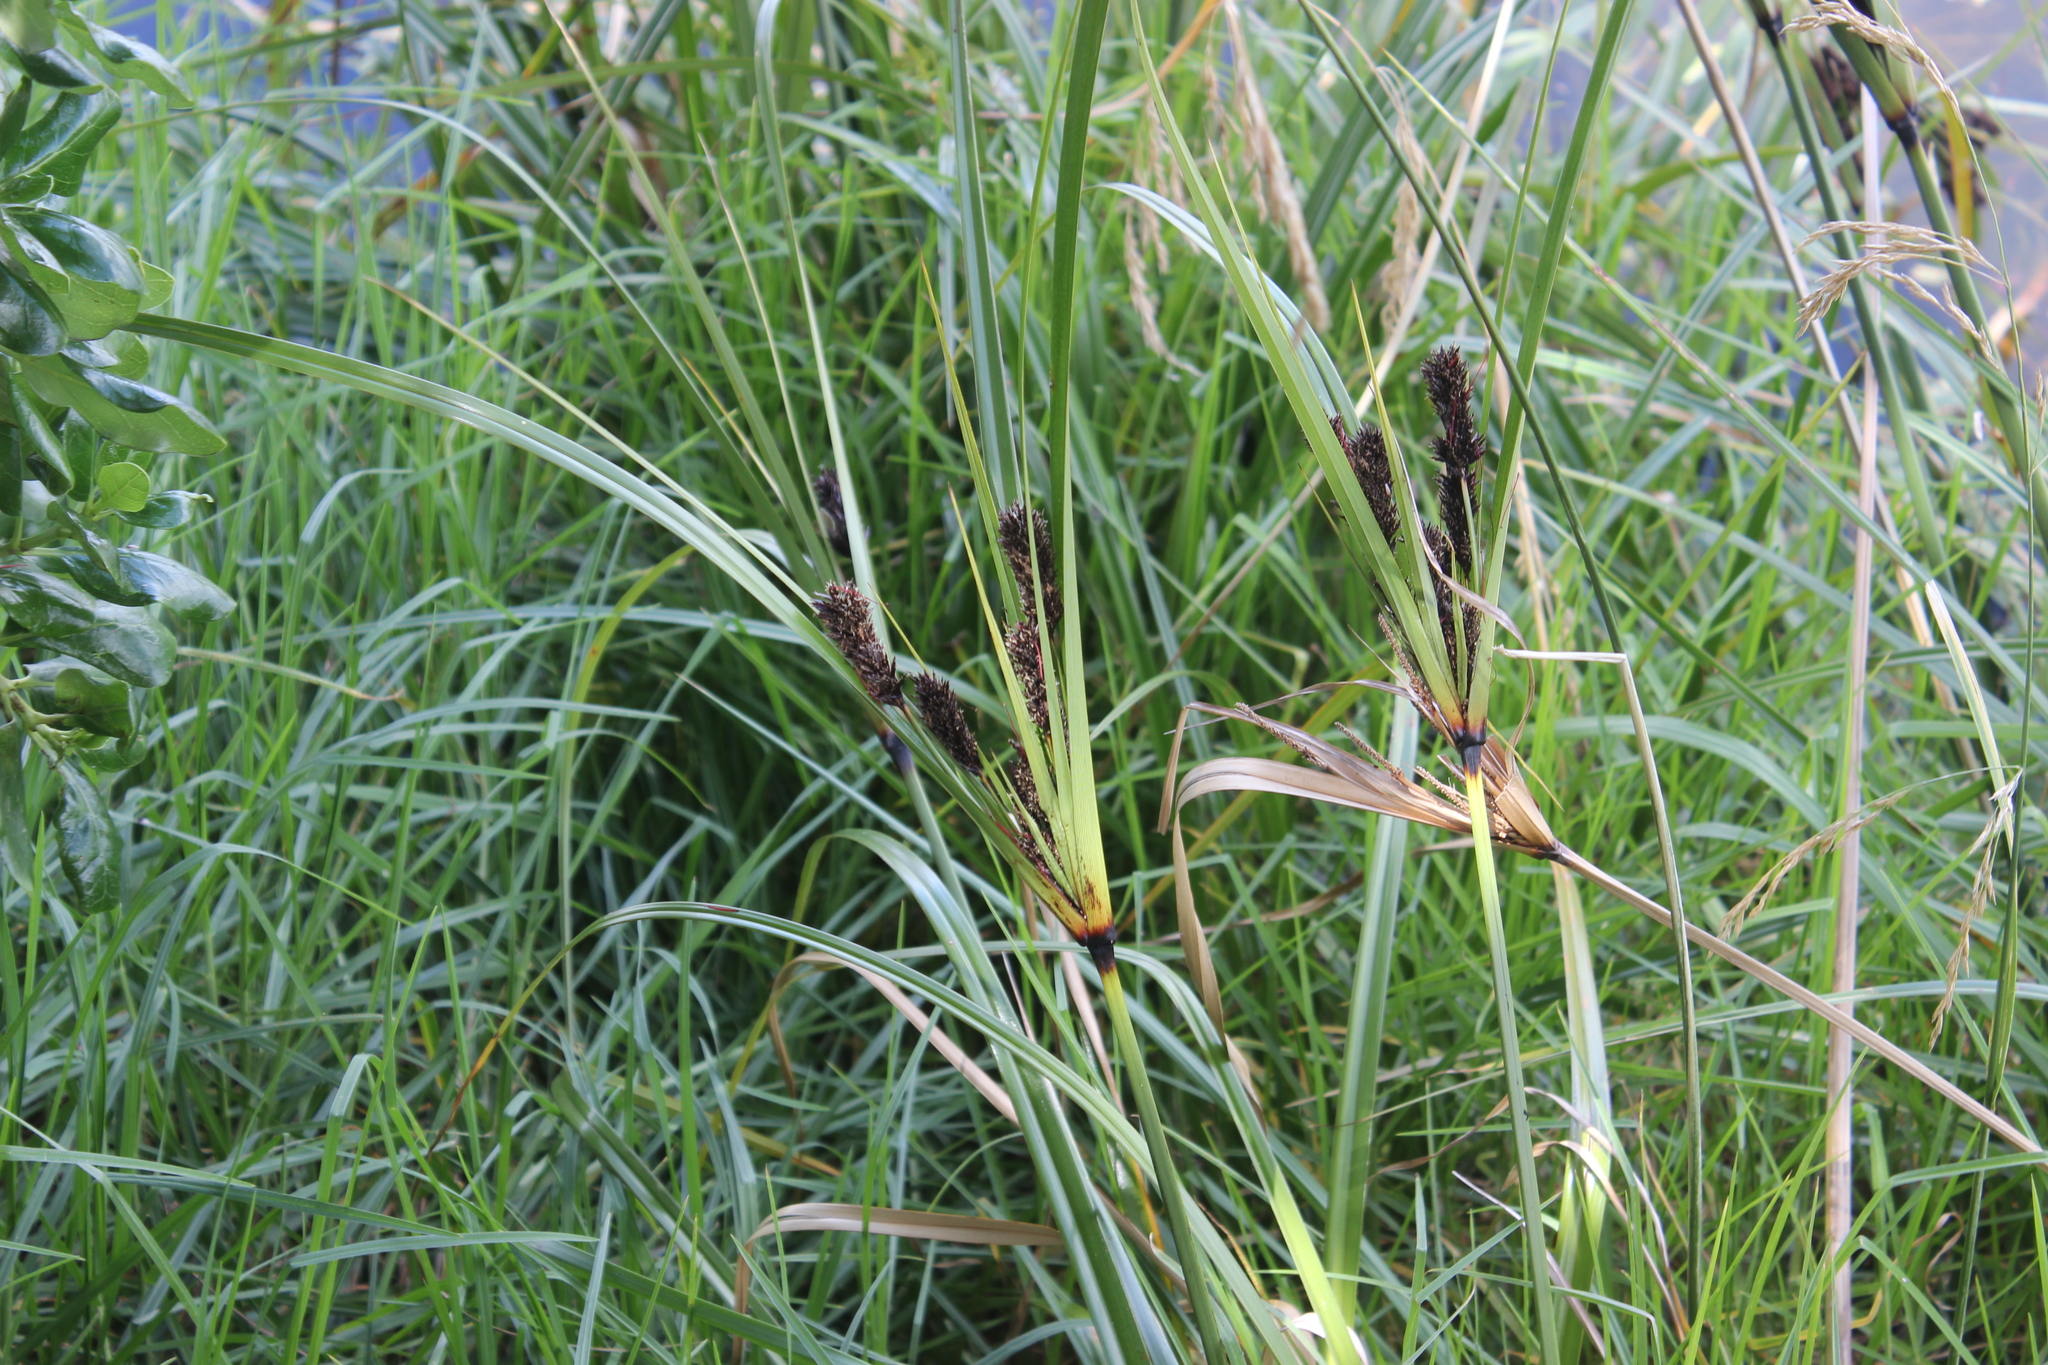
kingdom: Plantae
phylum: Tracheophyta
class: Liliopsida
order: Poales
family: Cyperaceae
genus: Cyperus
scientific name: Cyperus ustulatus
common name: Giant umbrella-sedge
